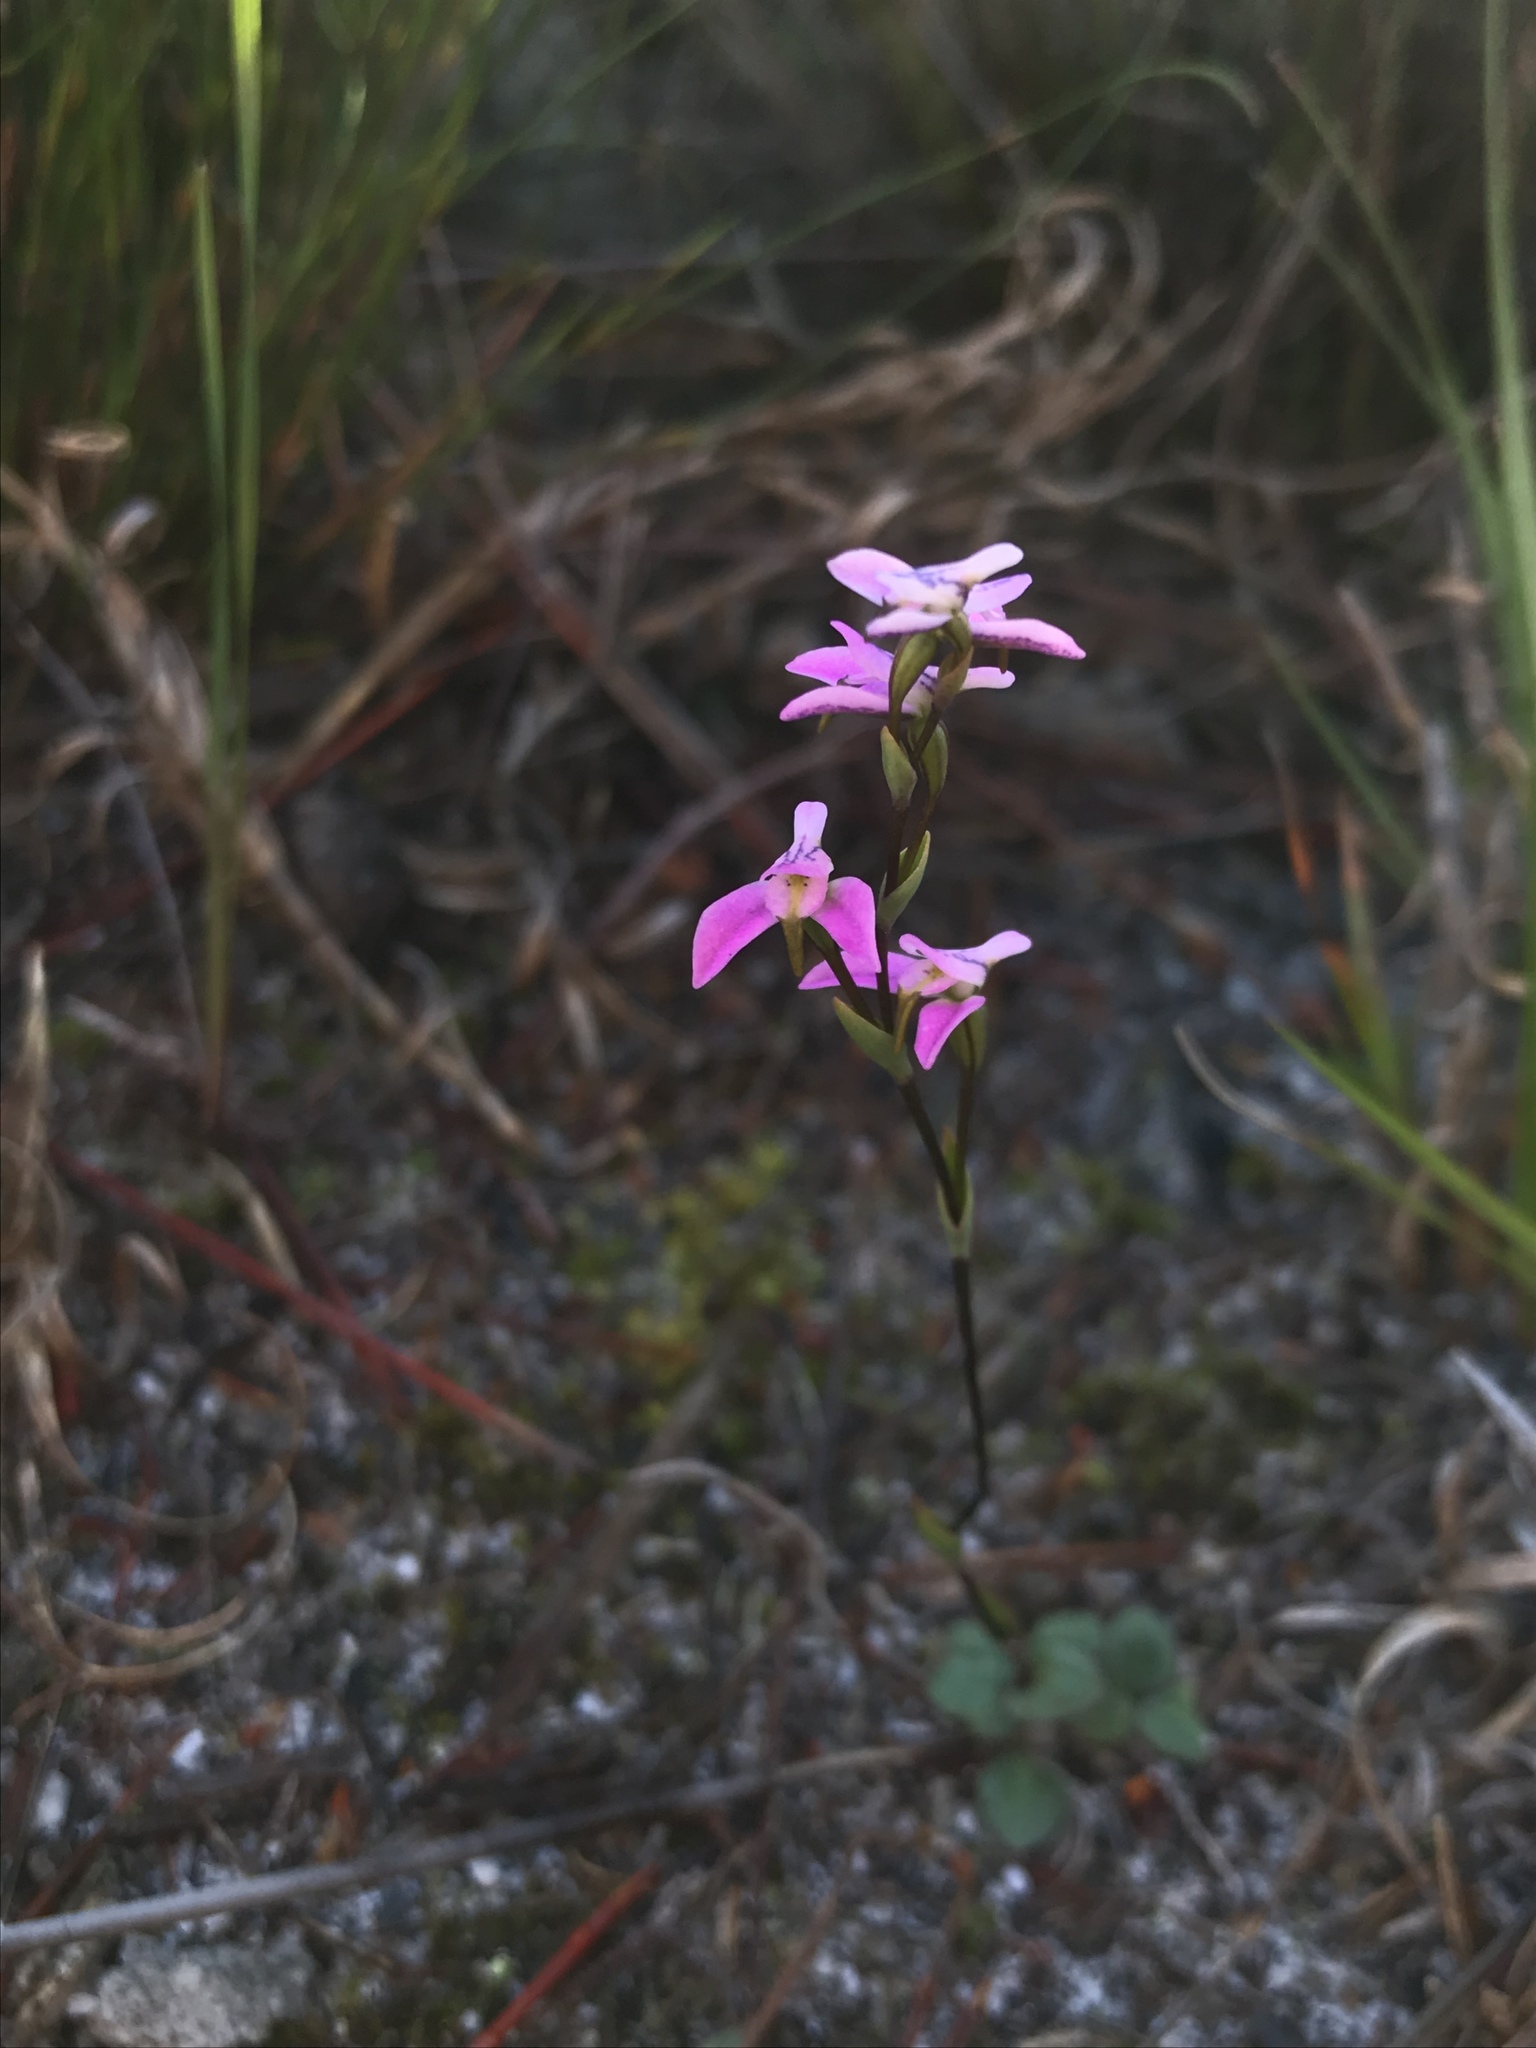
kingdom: Plantae
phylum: Tracheophyta
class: Liliopsida
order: Asparagales
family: Orchidaceae
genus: Disa
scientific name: Disa obliqua
